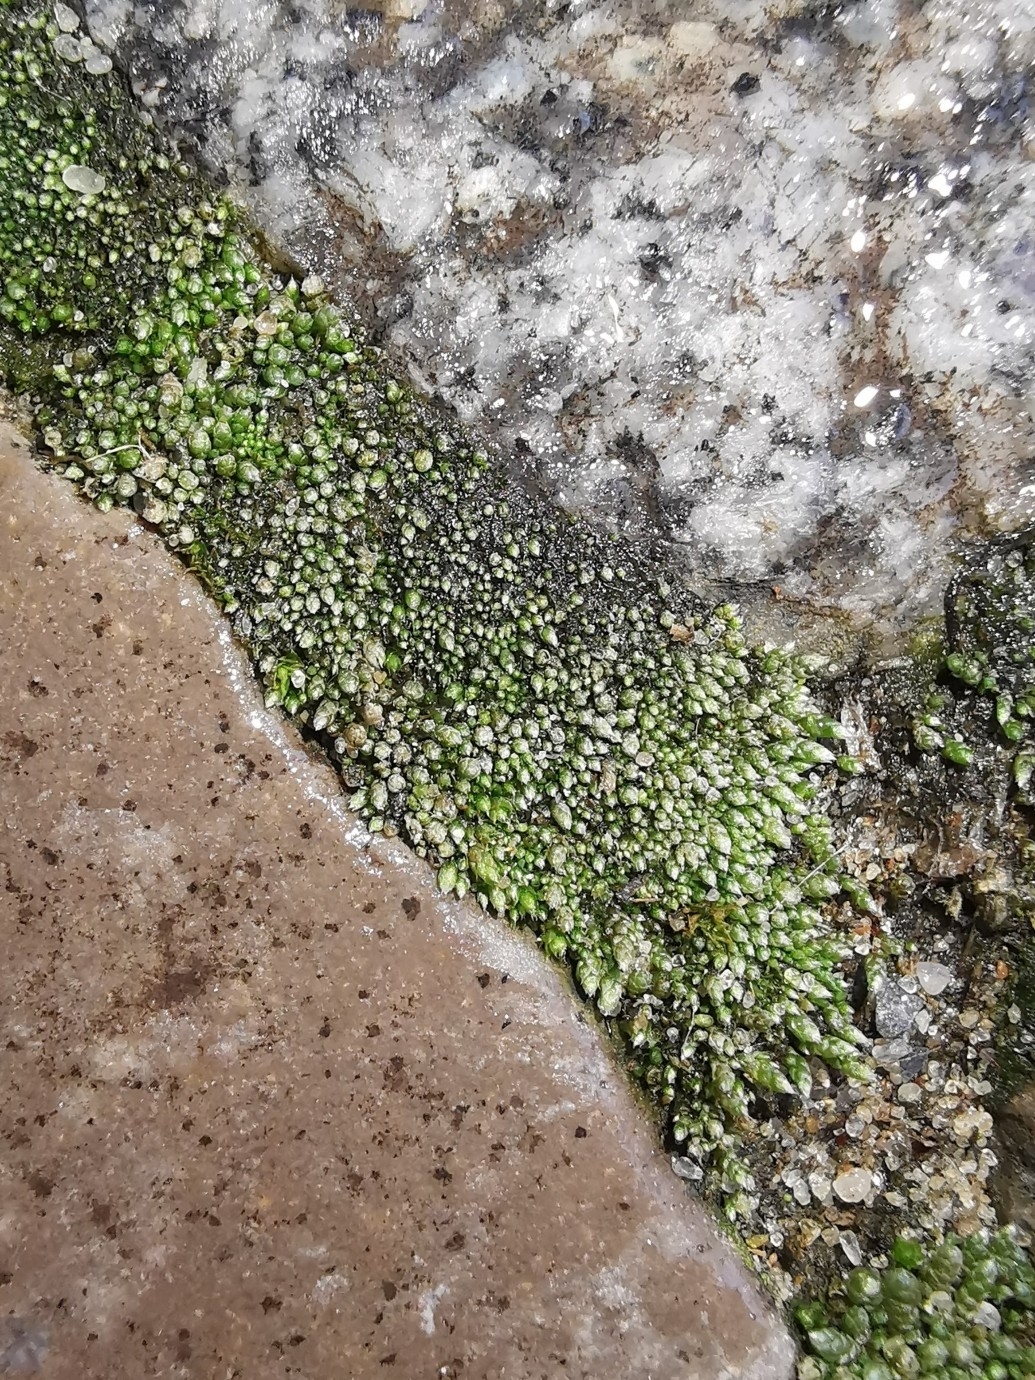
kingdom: Plantae
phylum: Bryophyta
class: Bryopsida
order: Bryales
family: Bryaceae
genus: Bryum
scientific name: Bryum argenteum
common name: Silver-moss
